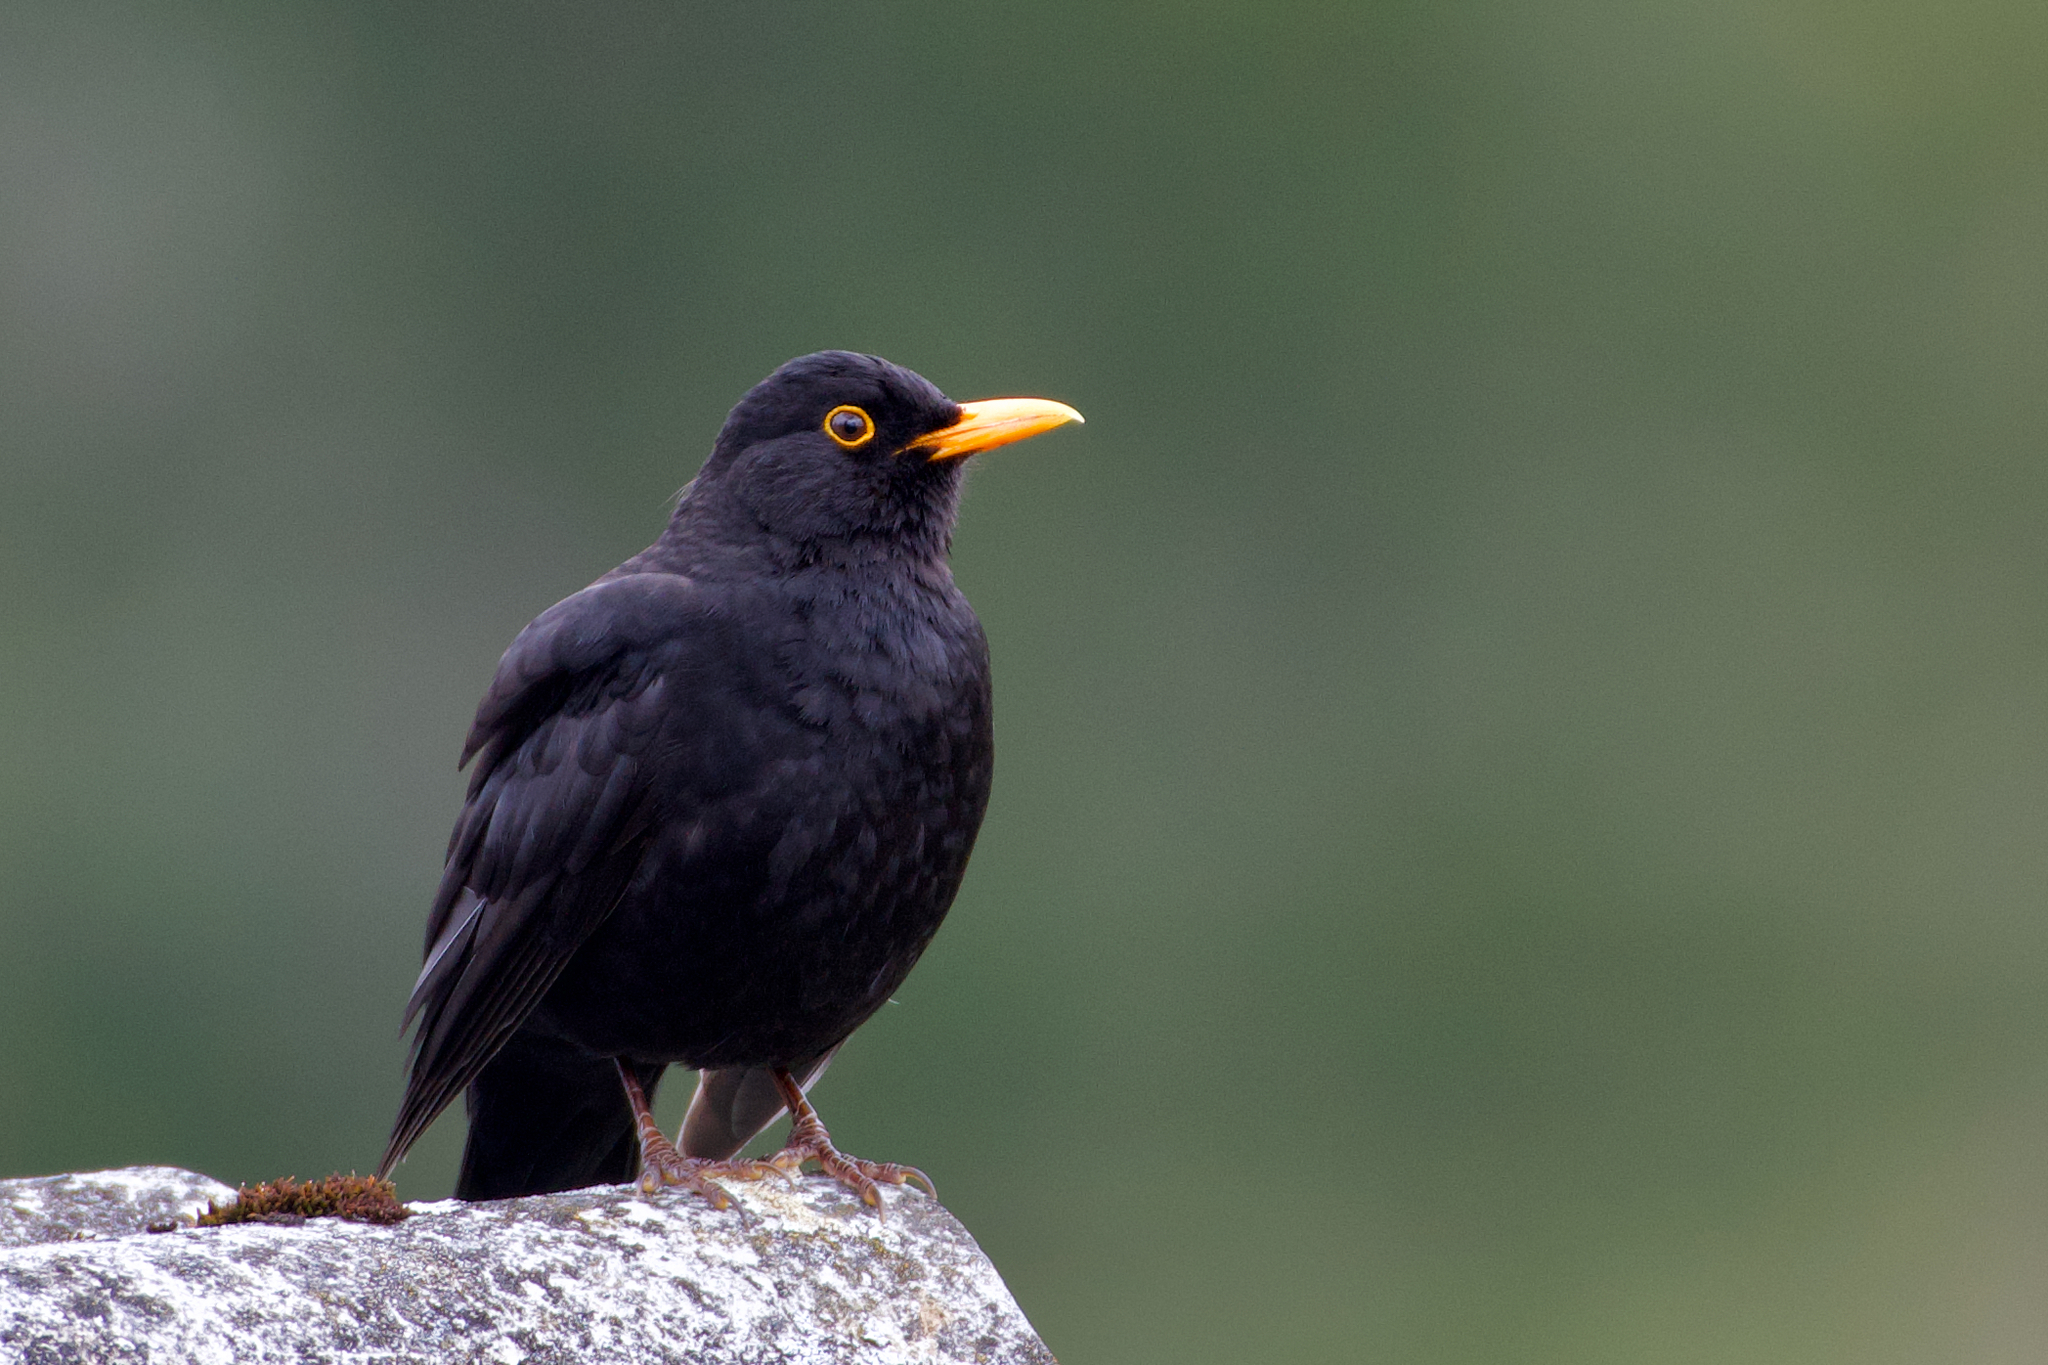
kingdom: Animalia
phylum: Chordata
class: Aves
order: Passeriformes
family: Turdidae
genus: Turdus
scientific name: Turdus merula
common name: Common blackbird
